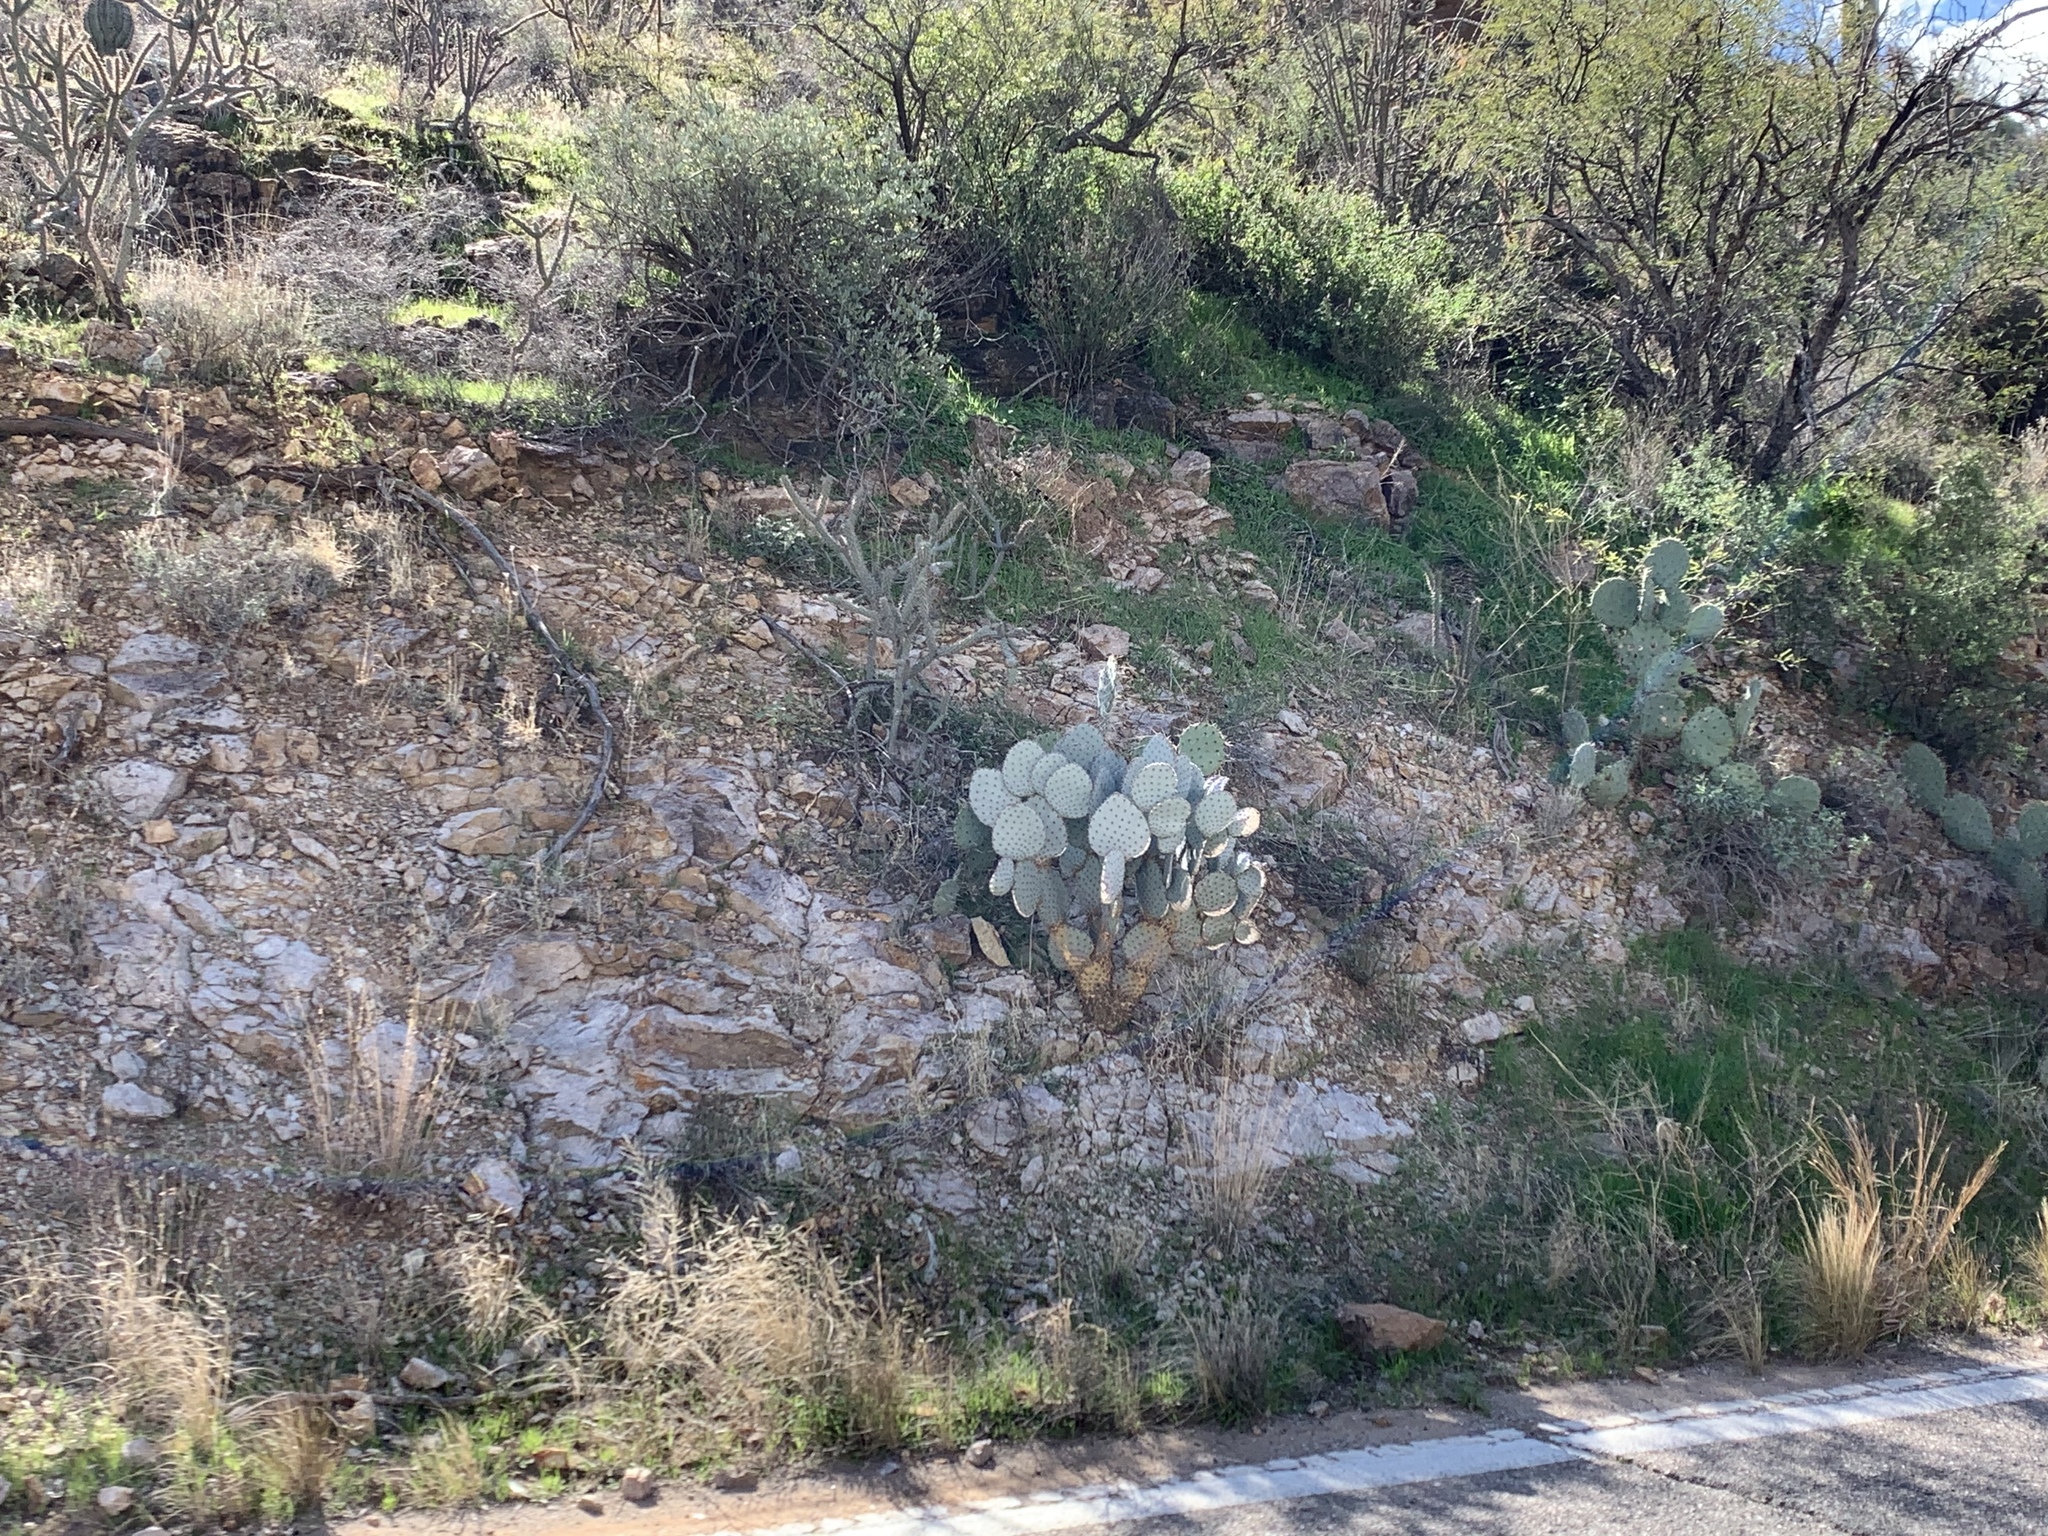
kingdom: Plantae
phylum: Tracheophyta
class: Magnoliopsida
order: Caryophyllales
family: Cactaceae
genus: Opuntia
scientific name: Opuntia gosseliniana
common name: Violet prickly-pear
